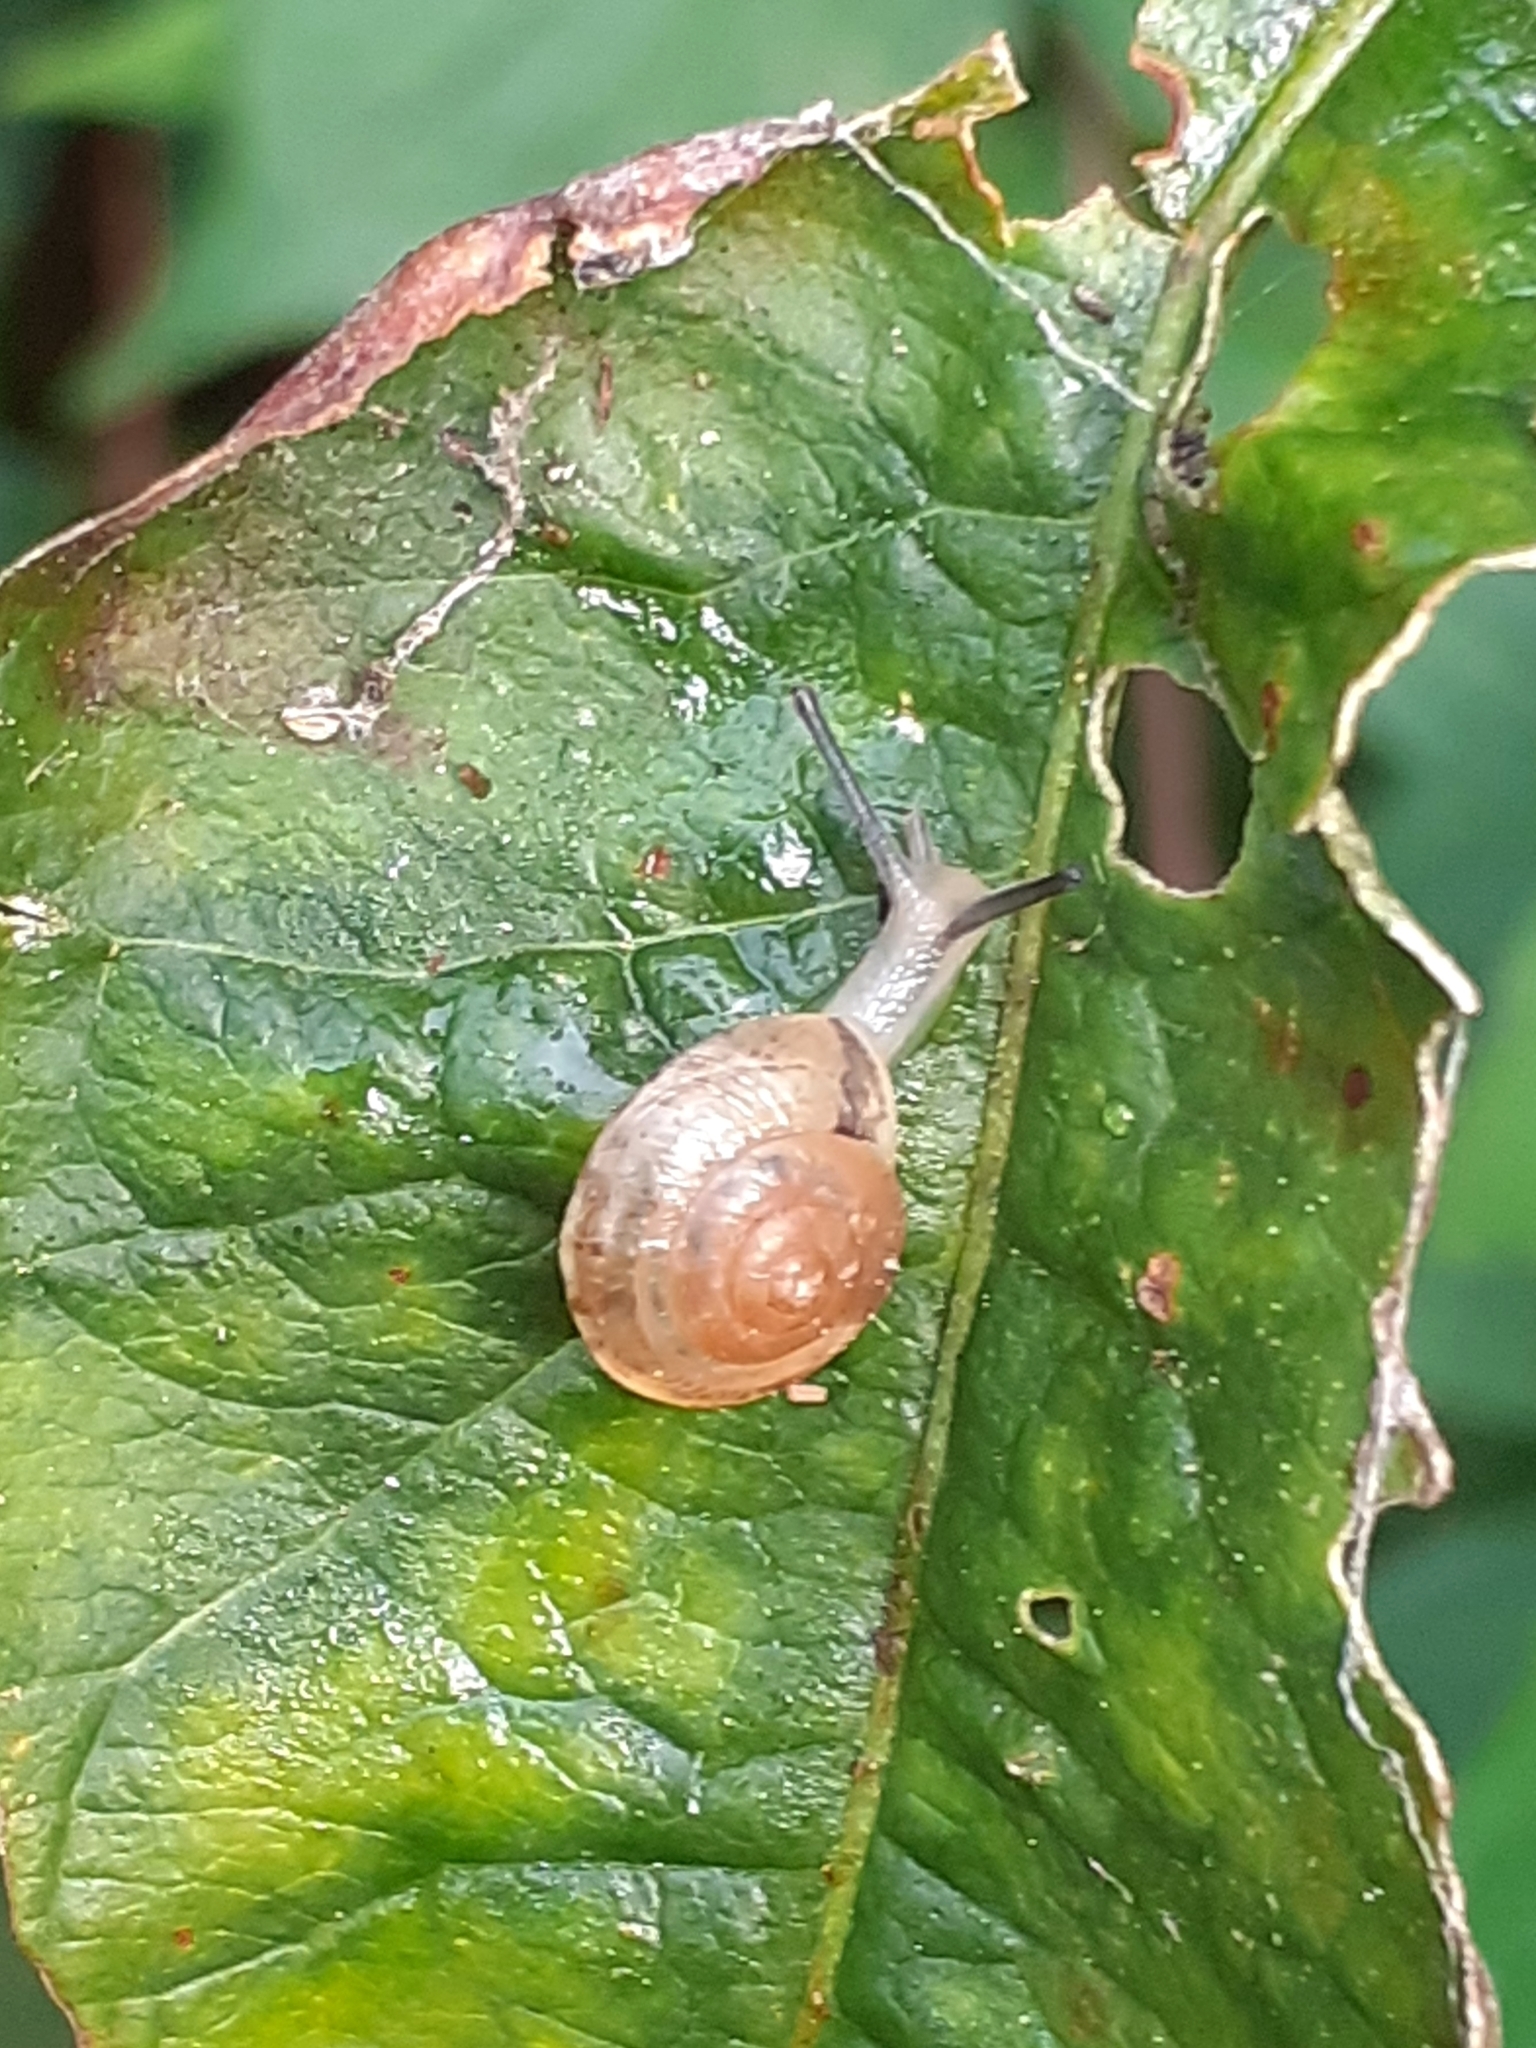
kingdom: Animalia
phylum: Mollusca
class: Gastropoda
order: Stylommatophora
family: Hygromiidae
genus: Hygromia
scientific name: Hygromia cinctella
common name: Girdled snail
